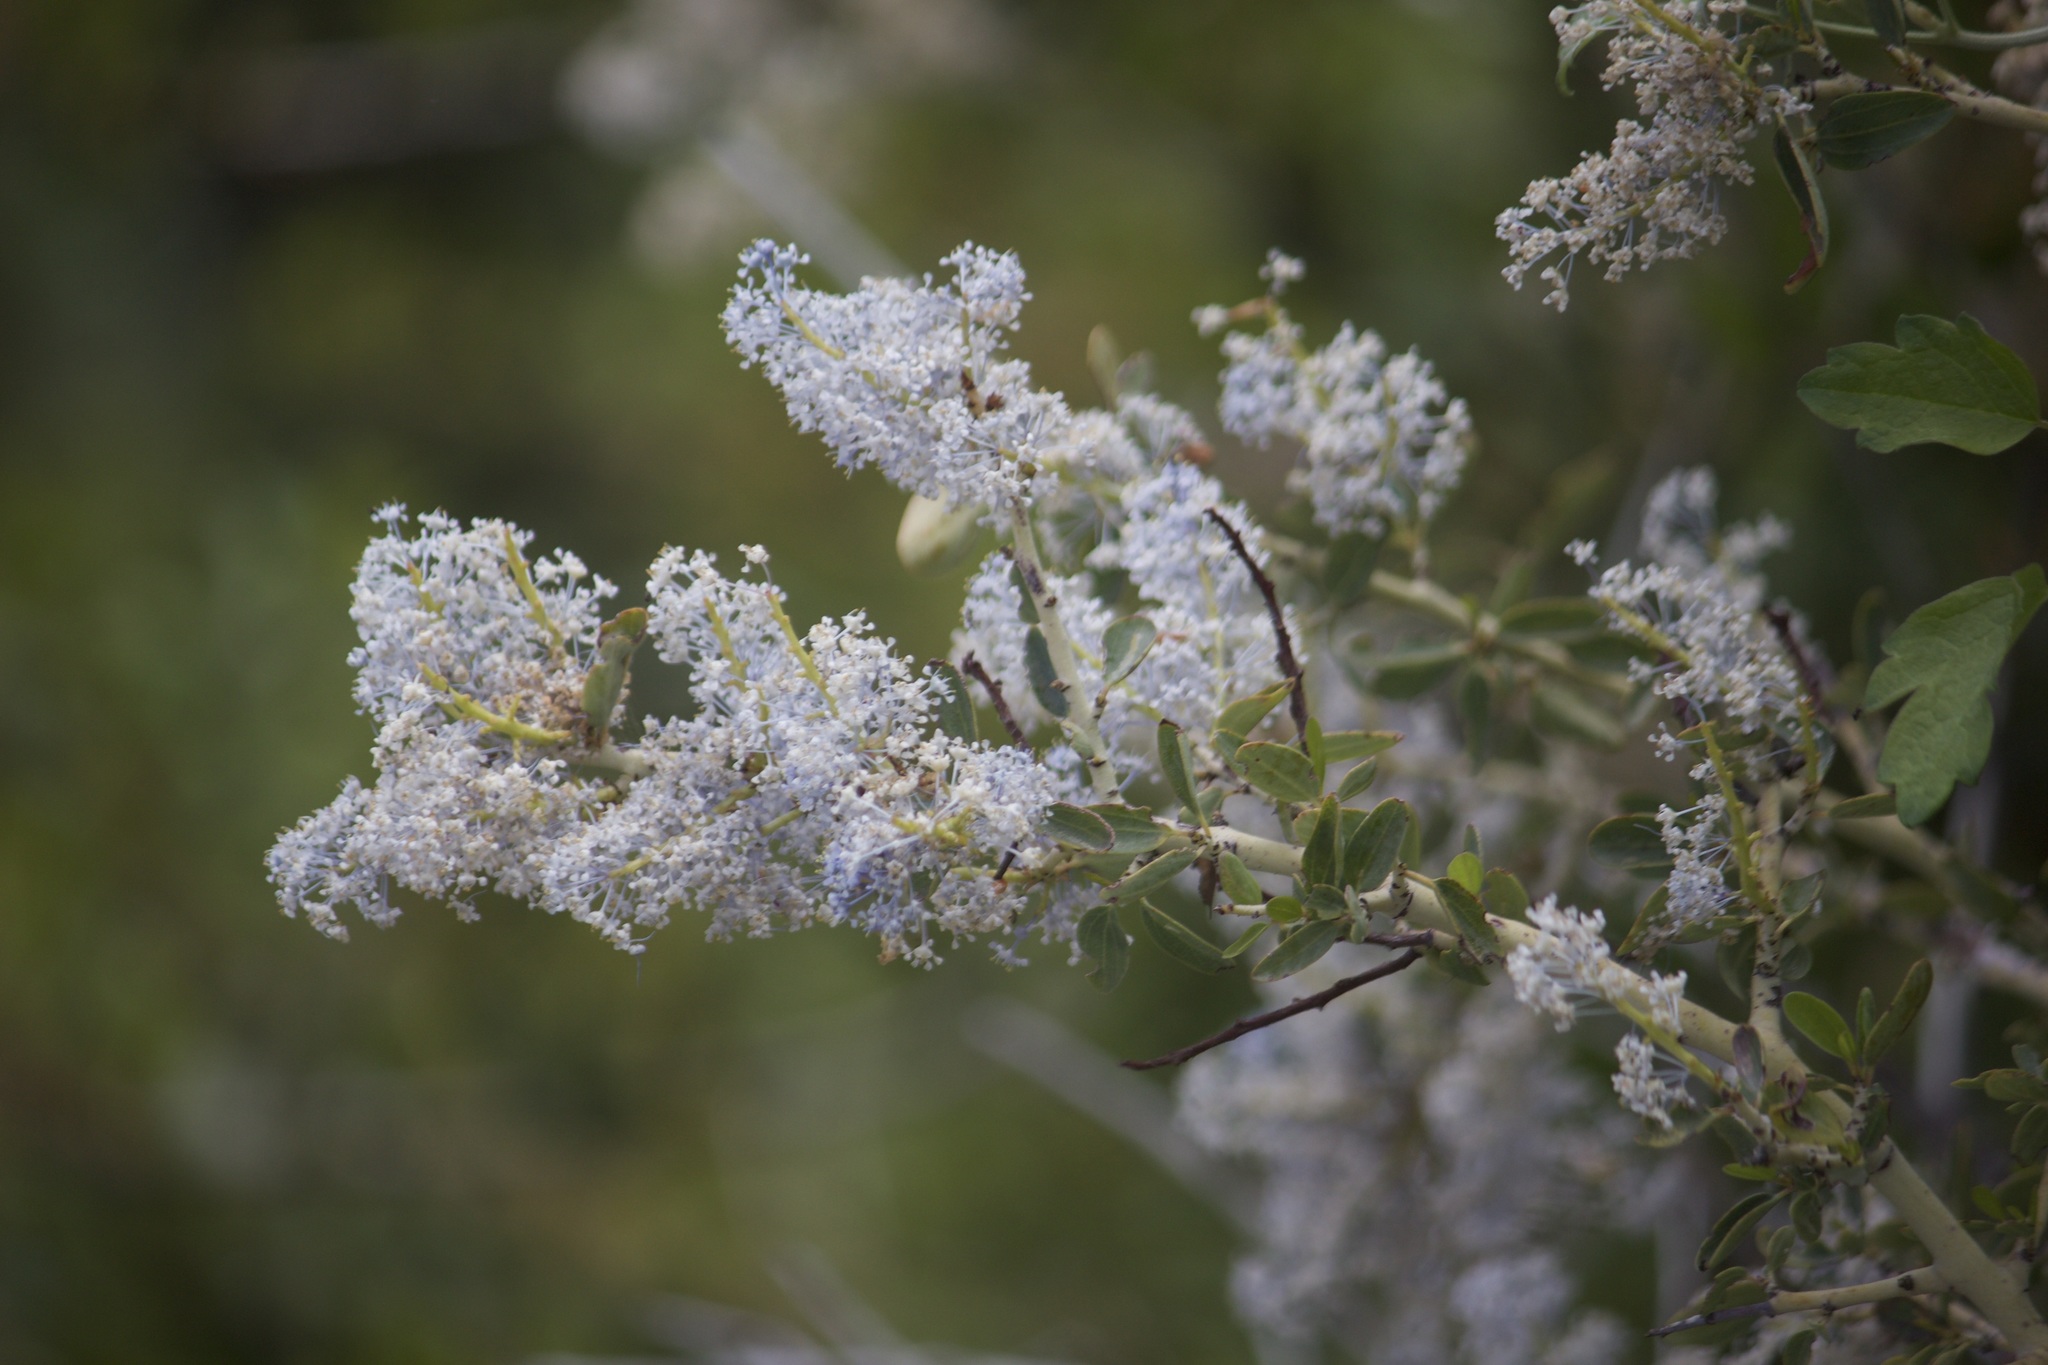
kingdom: Plantae
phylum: Tracheophyta
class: Magnoliopsida
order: Rosales
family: Rhamnaceae
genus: Ceanothus
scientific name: Ceanothus leucodermis
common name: Chaparral whitethorn
